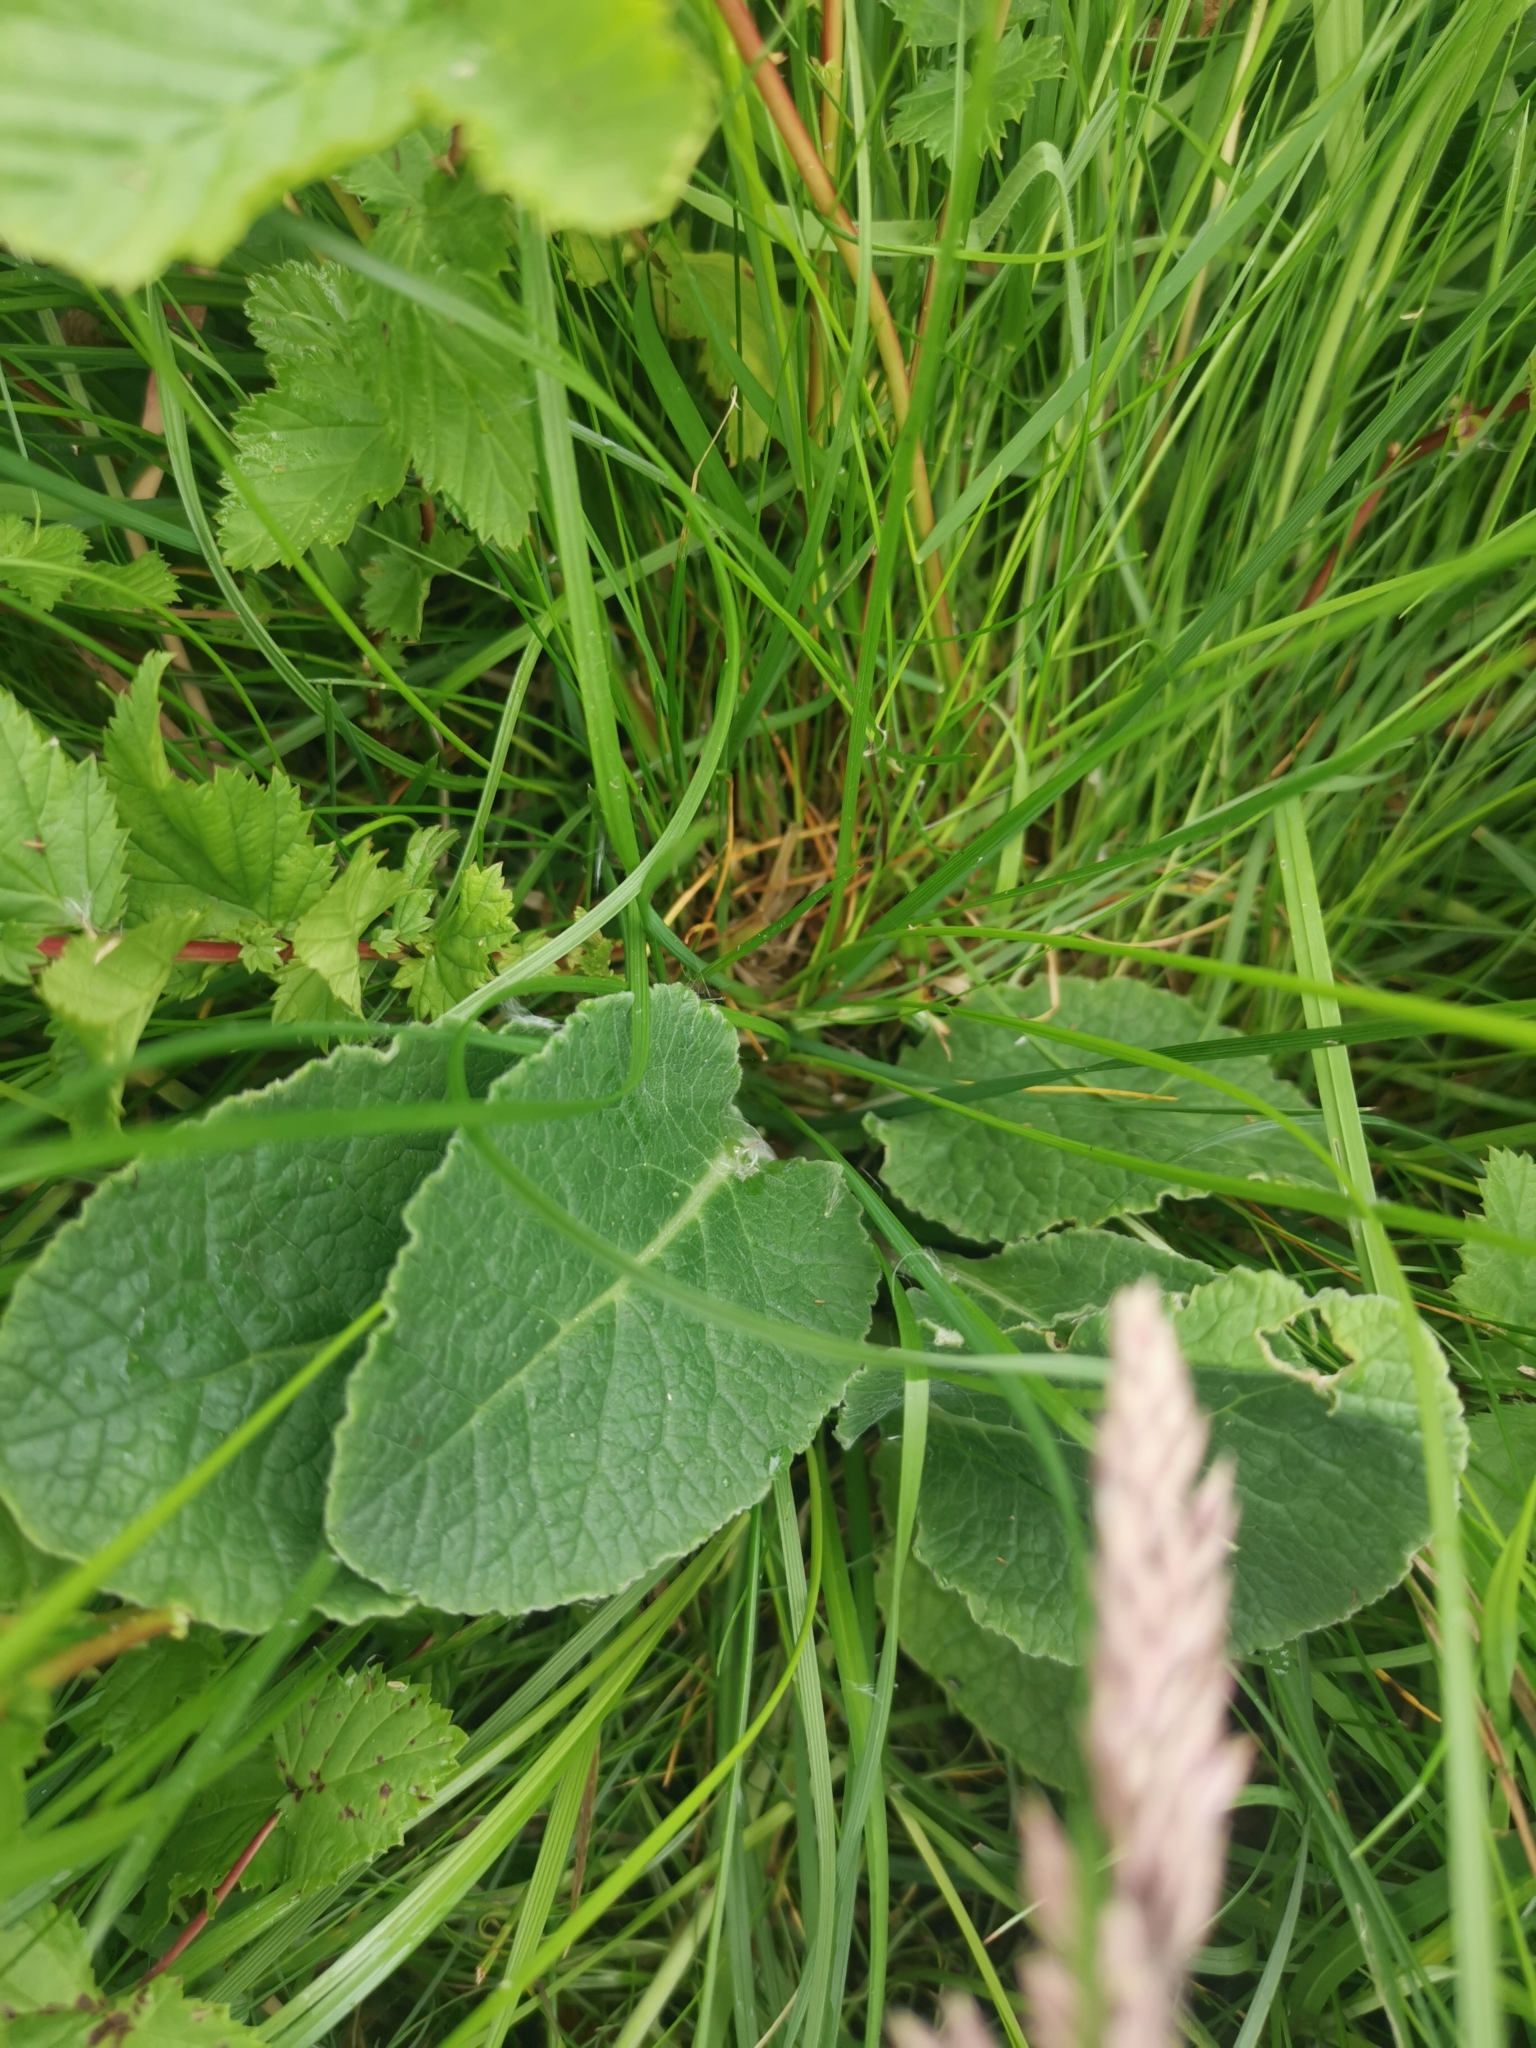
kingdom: Plantae
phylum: Tracheophyta
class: Magnoliopsida
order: Lamiales
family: Plantaginaceae
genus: Digitalis
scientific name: Digitalis purpurea
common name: Foxglove
